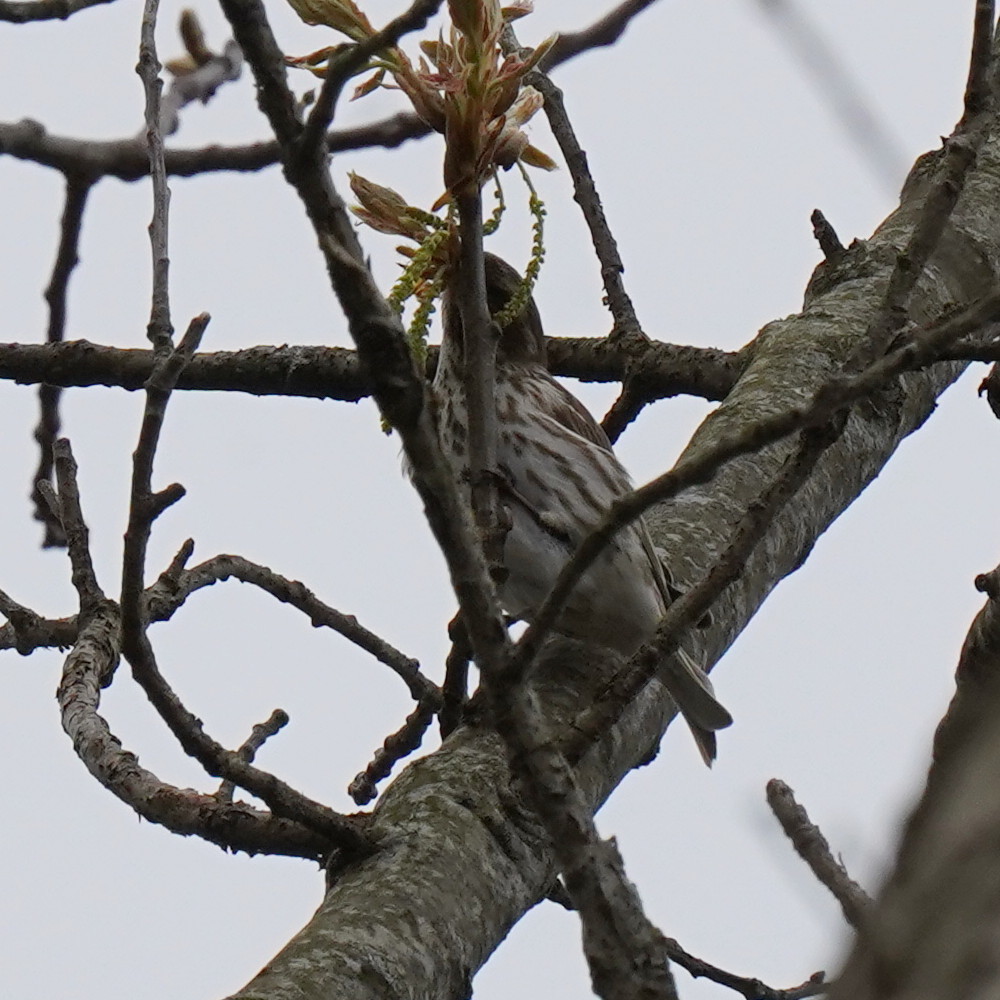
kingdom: Animalia
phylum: Chordata
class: Aves
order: Passeriformes
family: Fringillidae
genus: Haemorhous
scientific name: Haemorhous purpureus
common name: Purple finch
